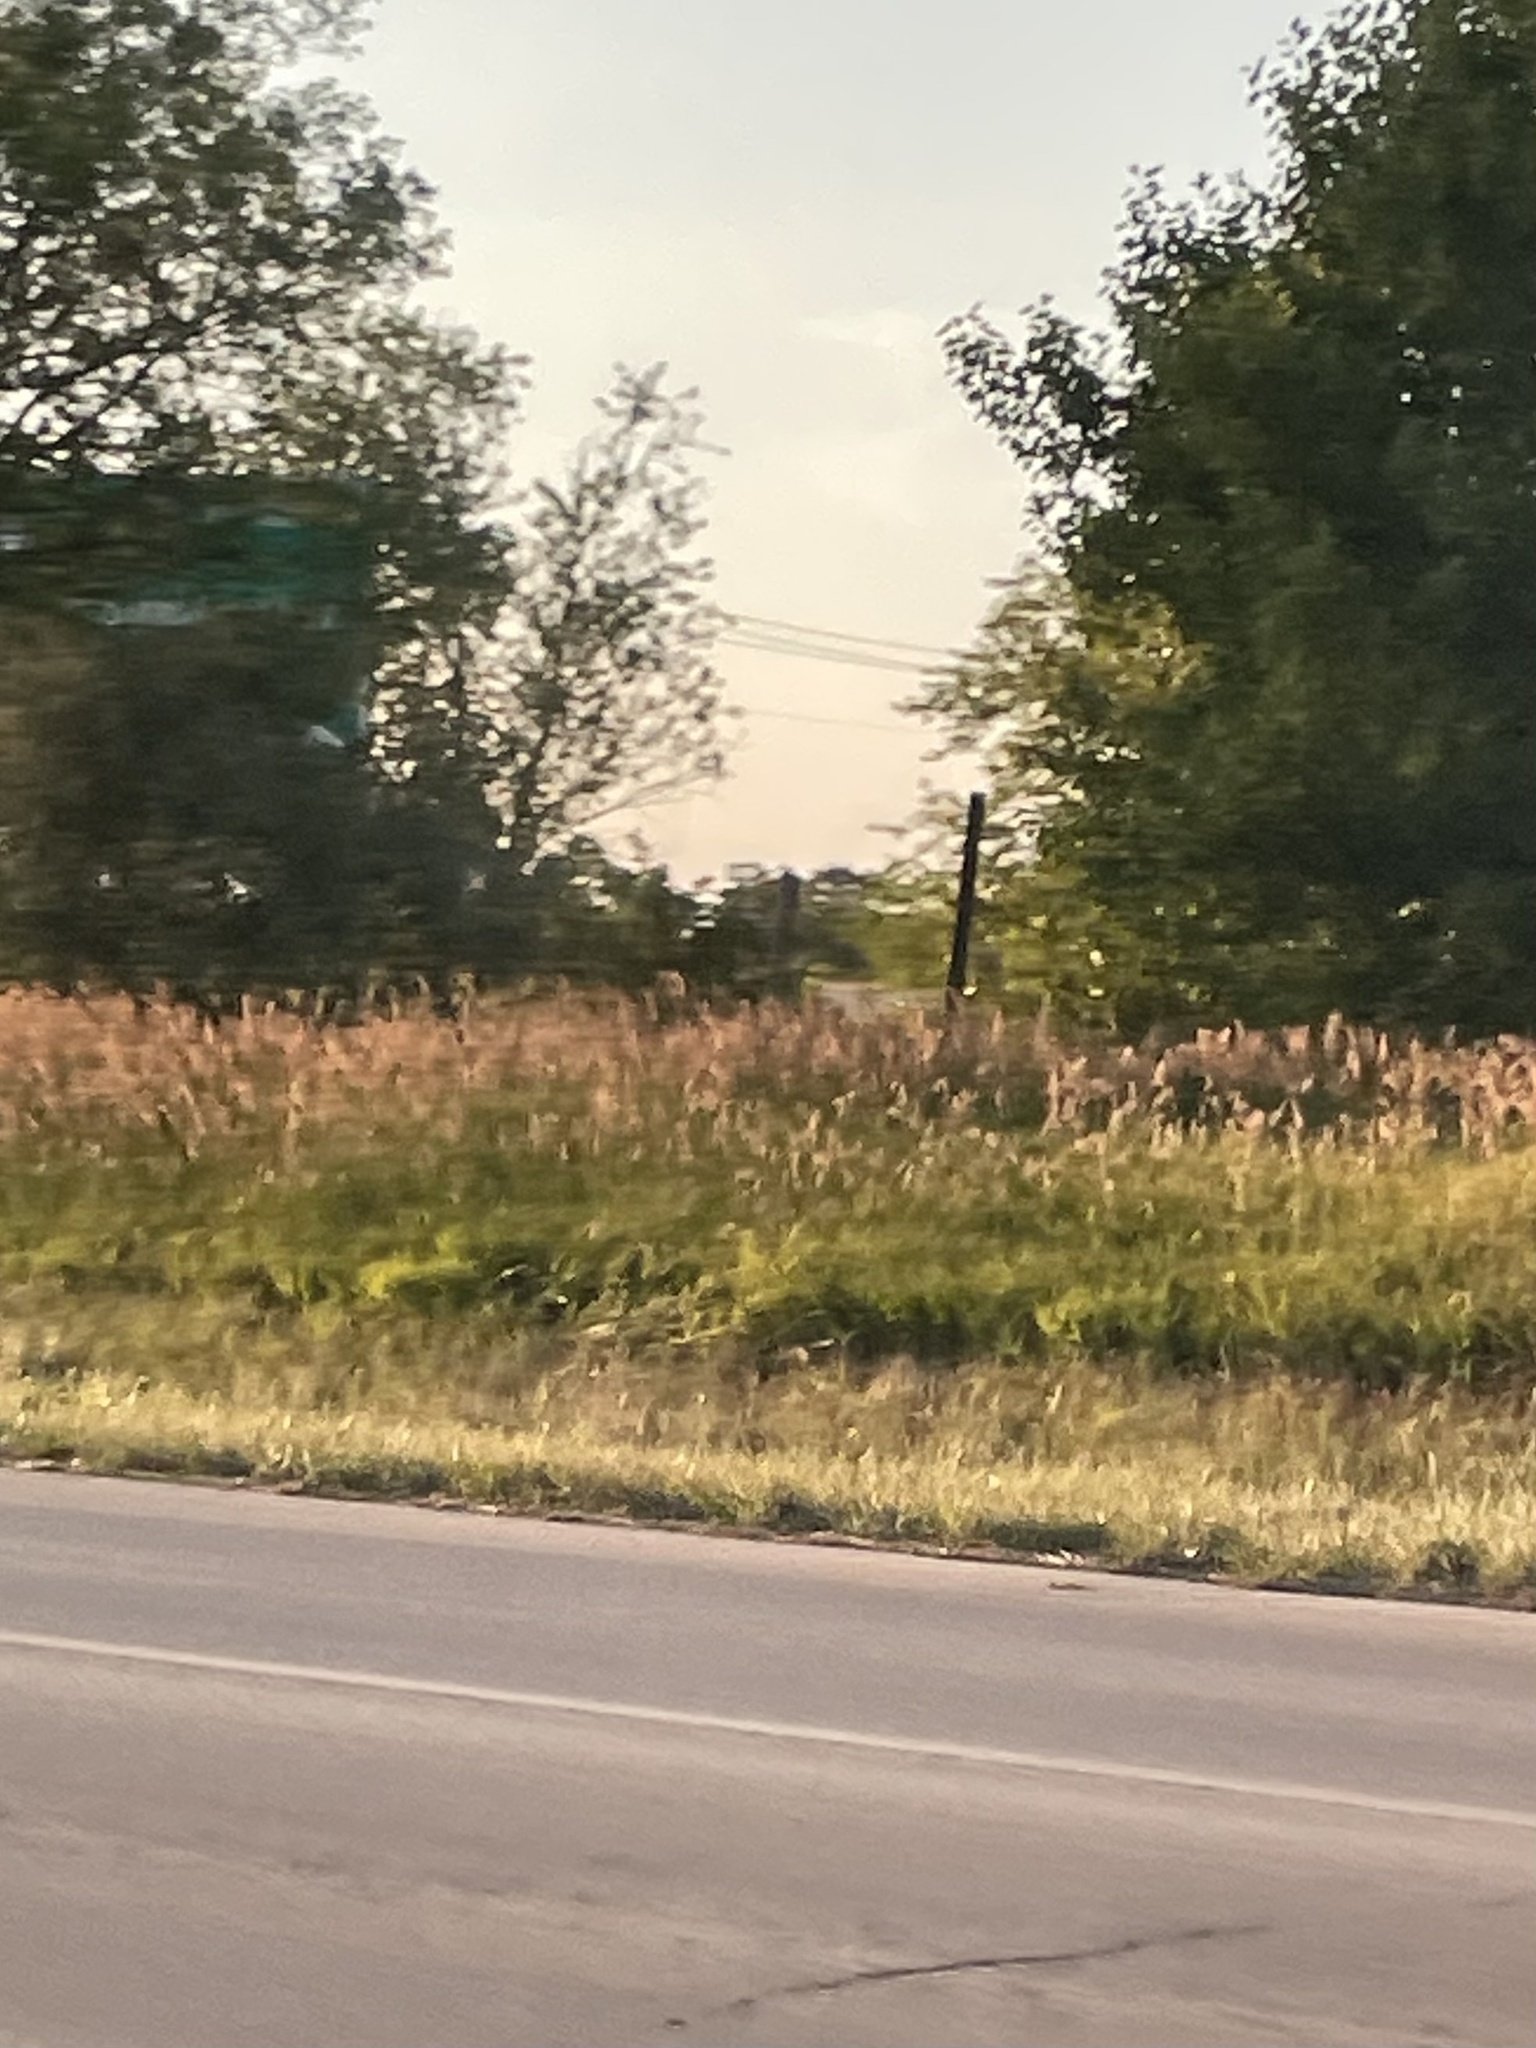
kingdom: Plantae
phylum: Tracheophyta
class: Liliopsida
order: Poales
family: Poaceae
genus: Phragmites
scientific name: Phragmites australis
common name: Common reed
